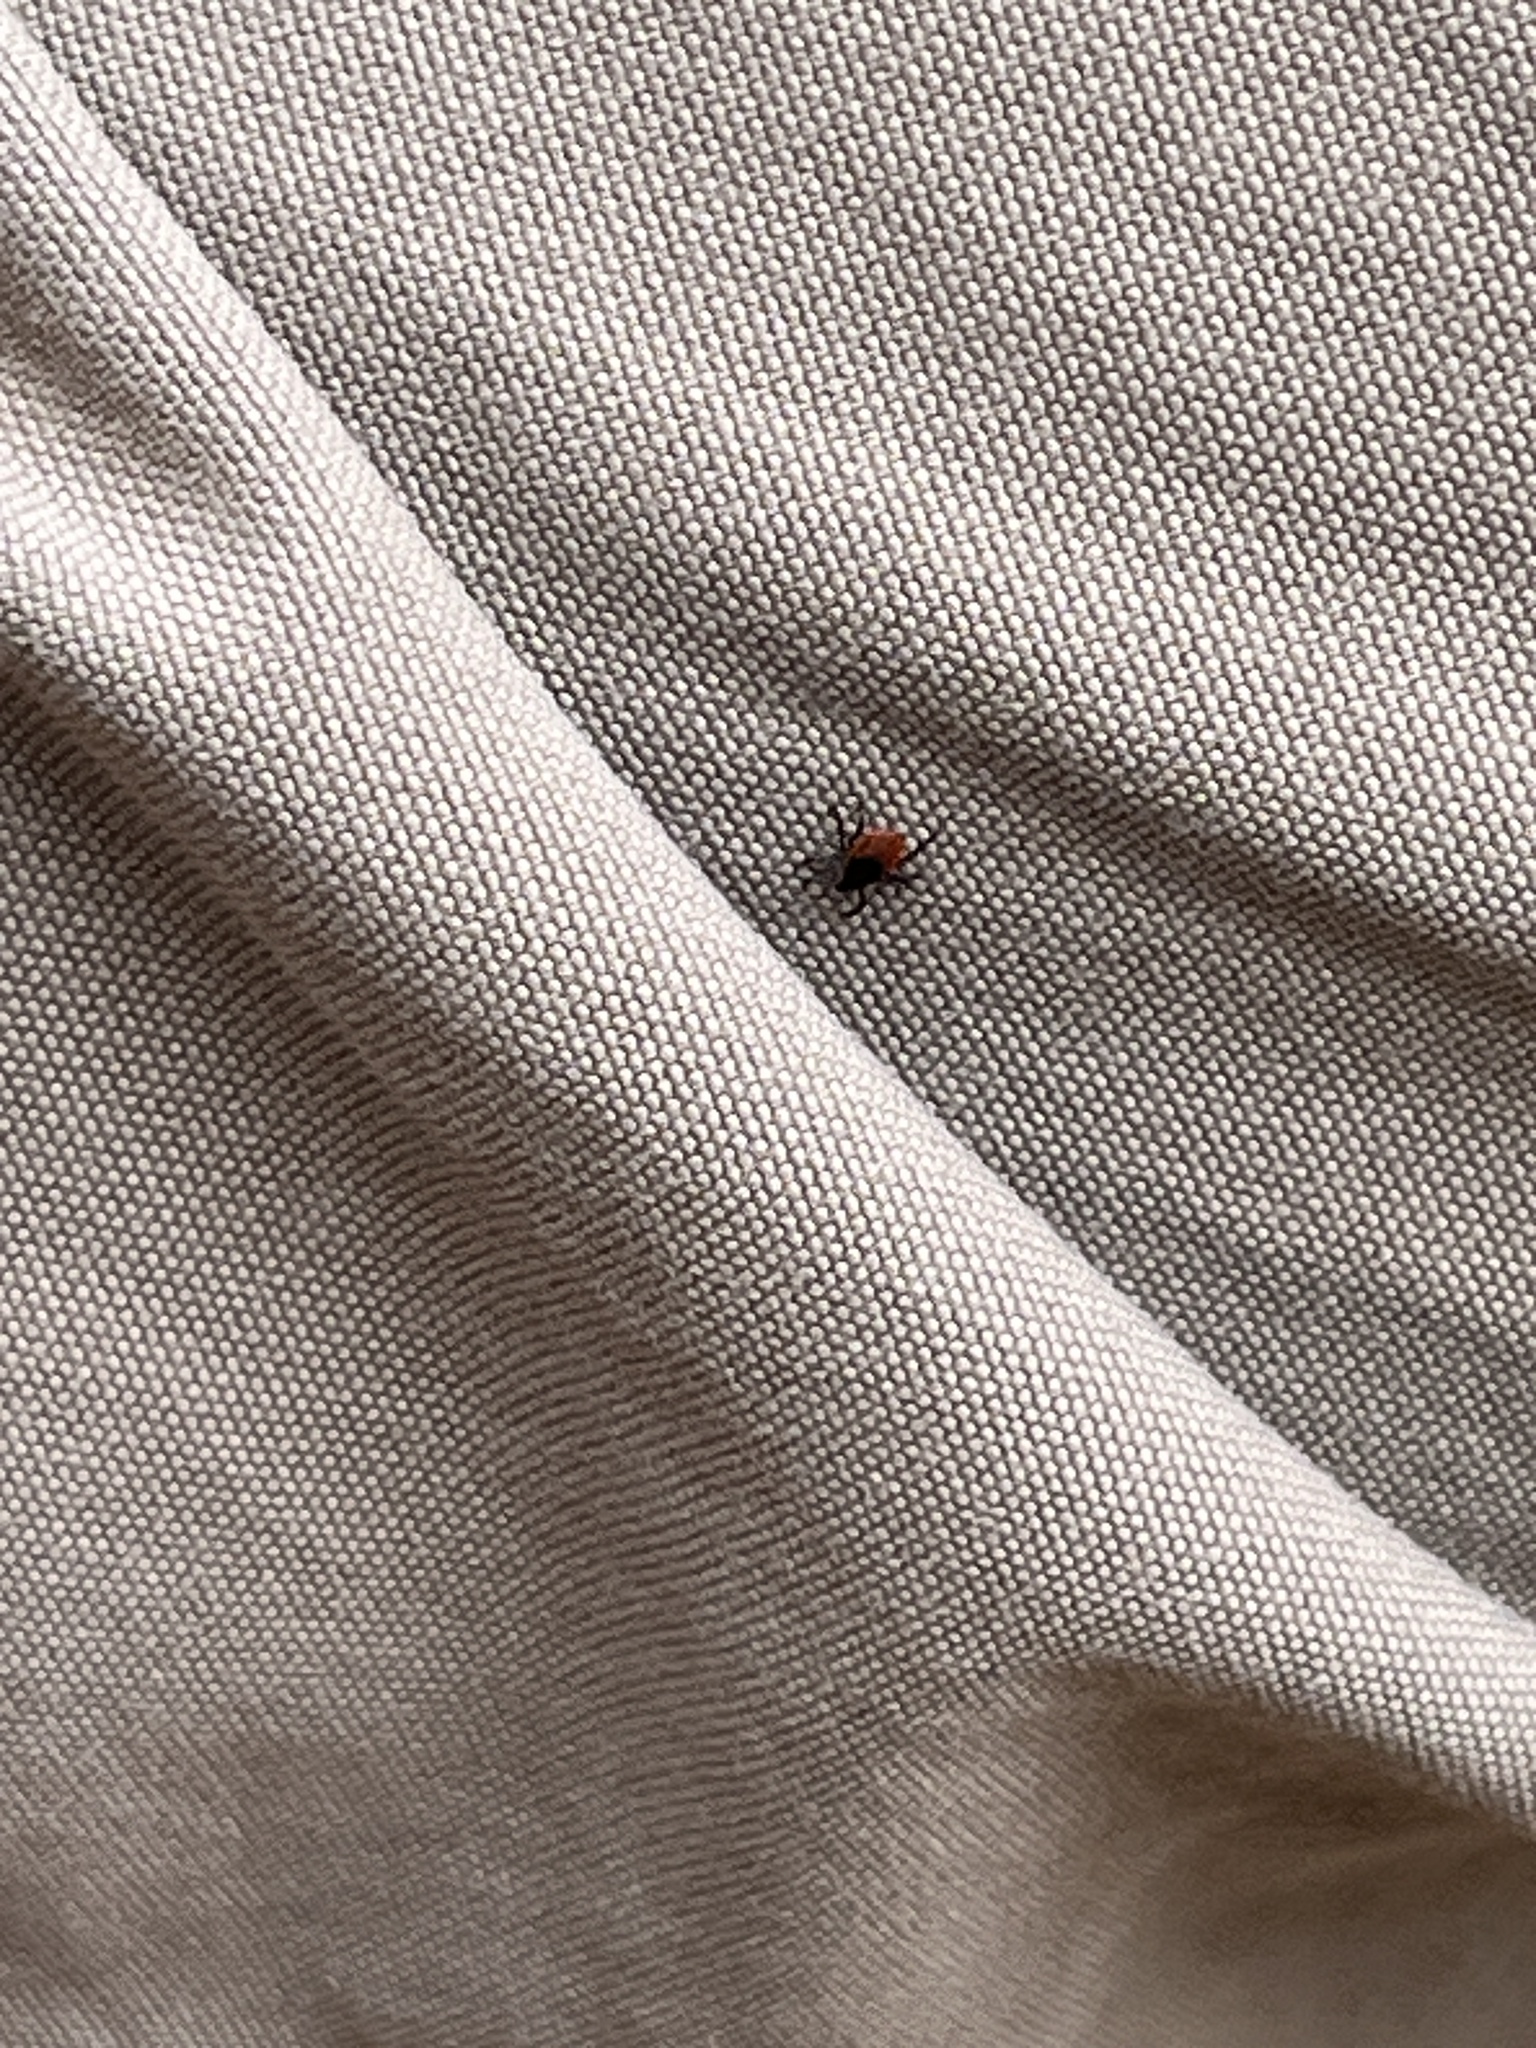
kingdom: Animalia
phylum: Arthropoda
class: Arachnida
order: Ixodida
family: Ixodidae
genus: Ixodes
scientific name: Ixodes scapularis
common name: Black legged tick
